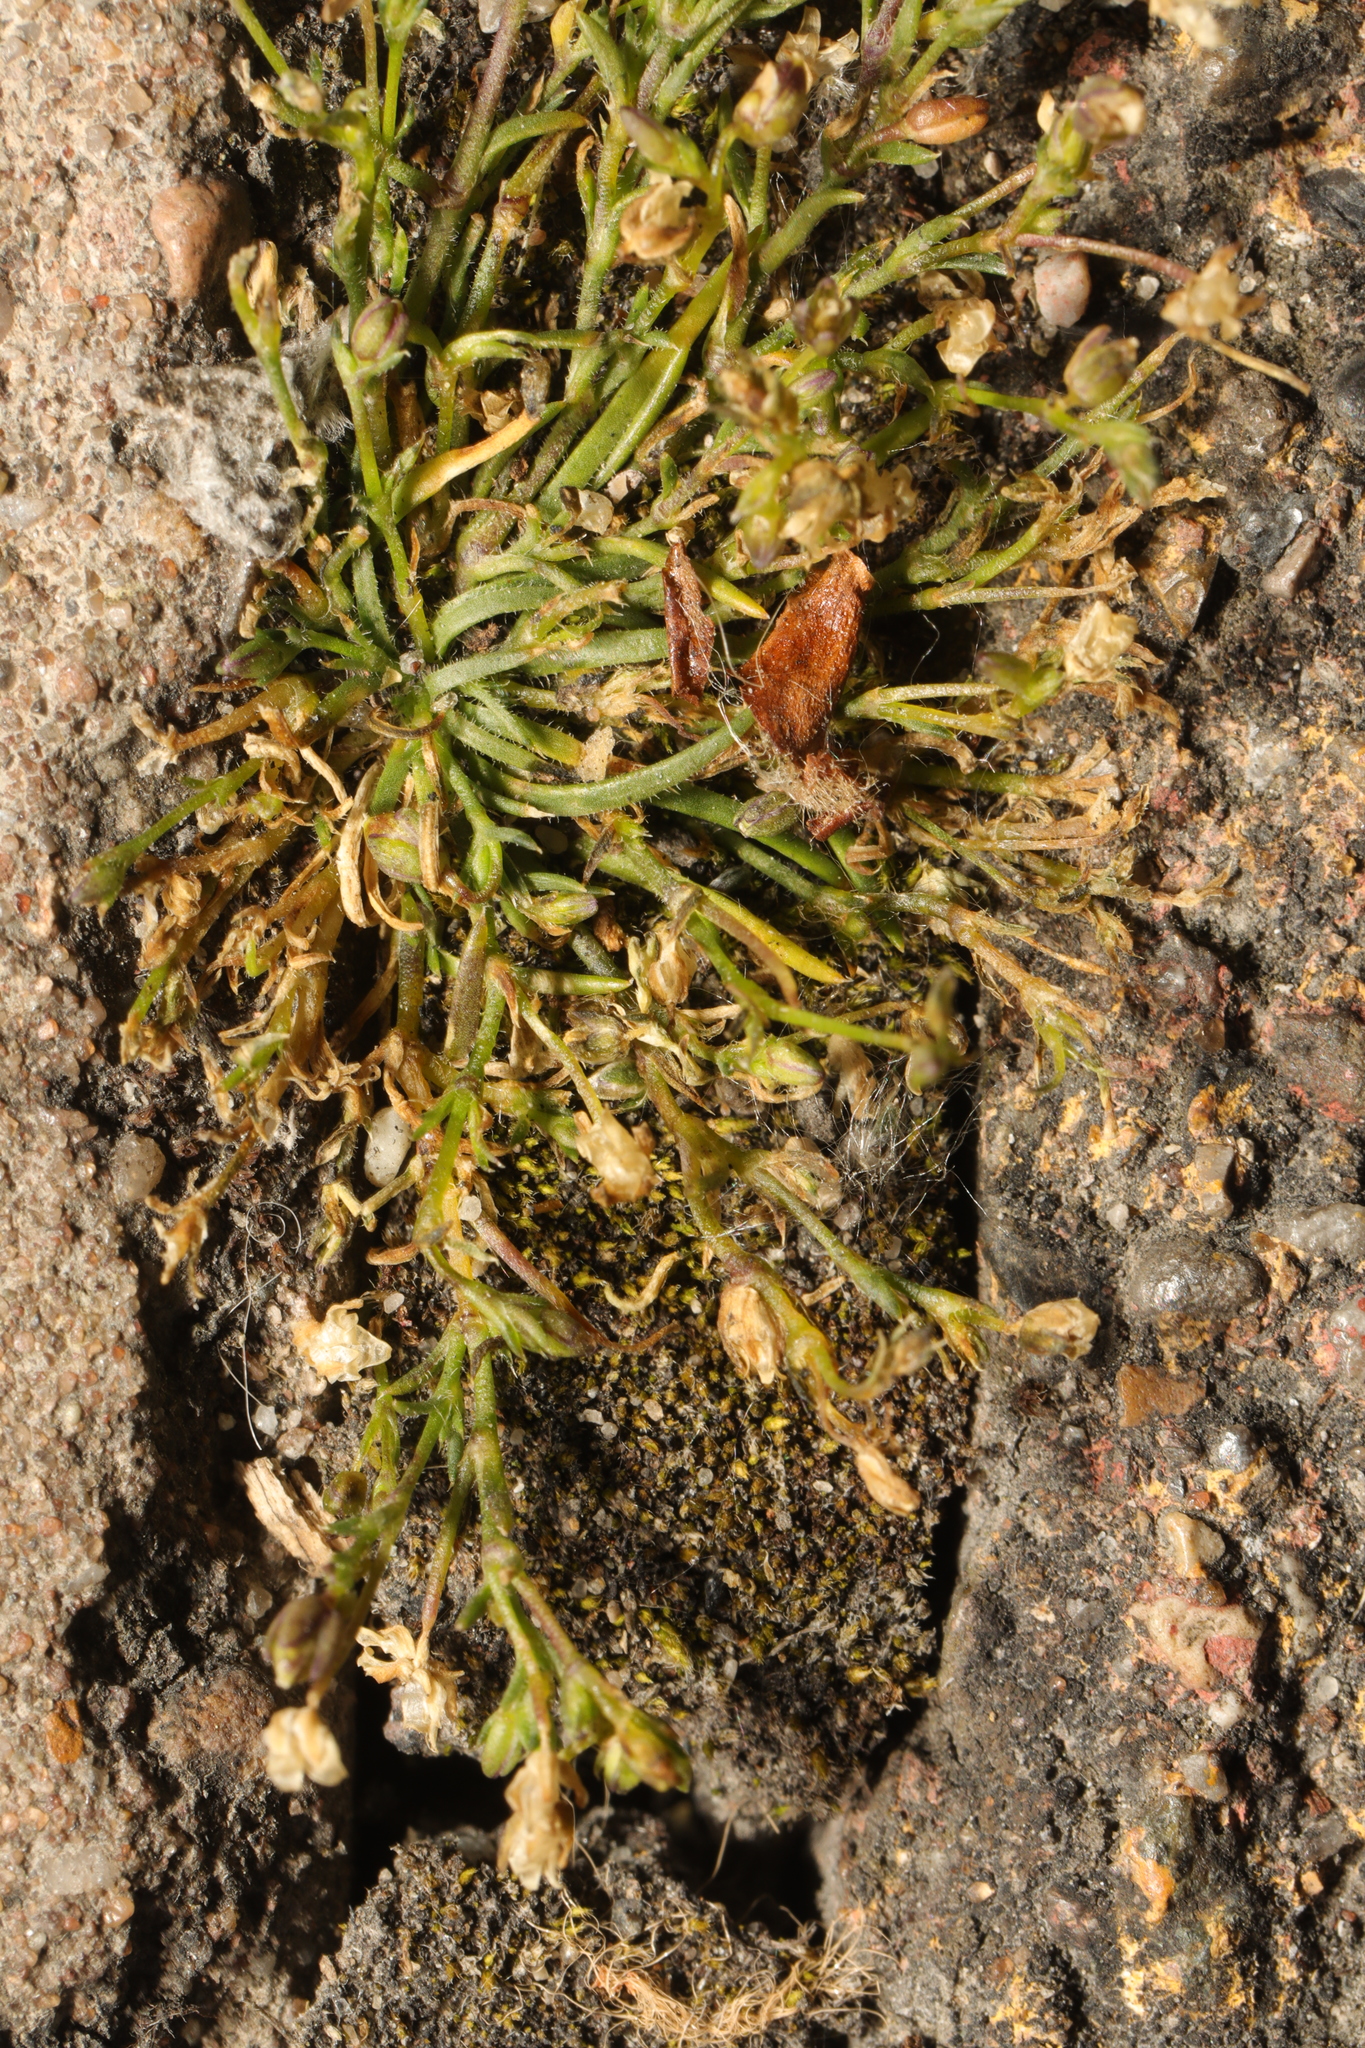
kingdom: Plantae
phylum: Tracheophyta
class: Magnoliopsida
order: Caryophyllales
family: Caryophyllaceae
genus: Sagina
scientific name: Sagina procumbens
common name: Procumbent pearlwort
